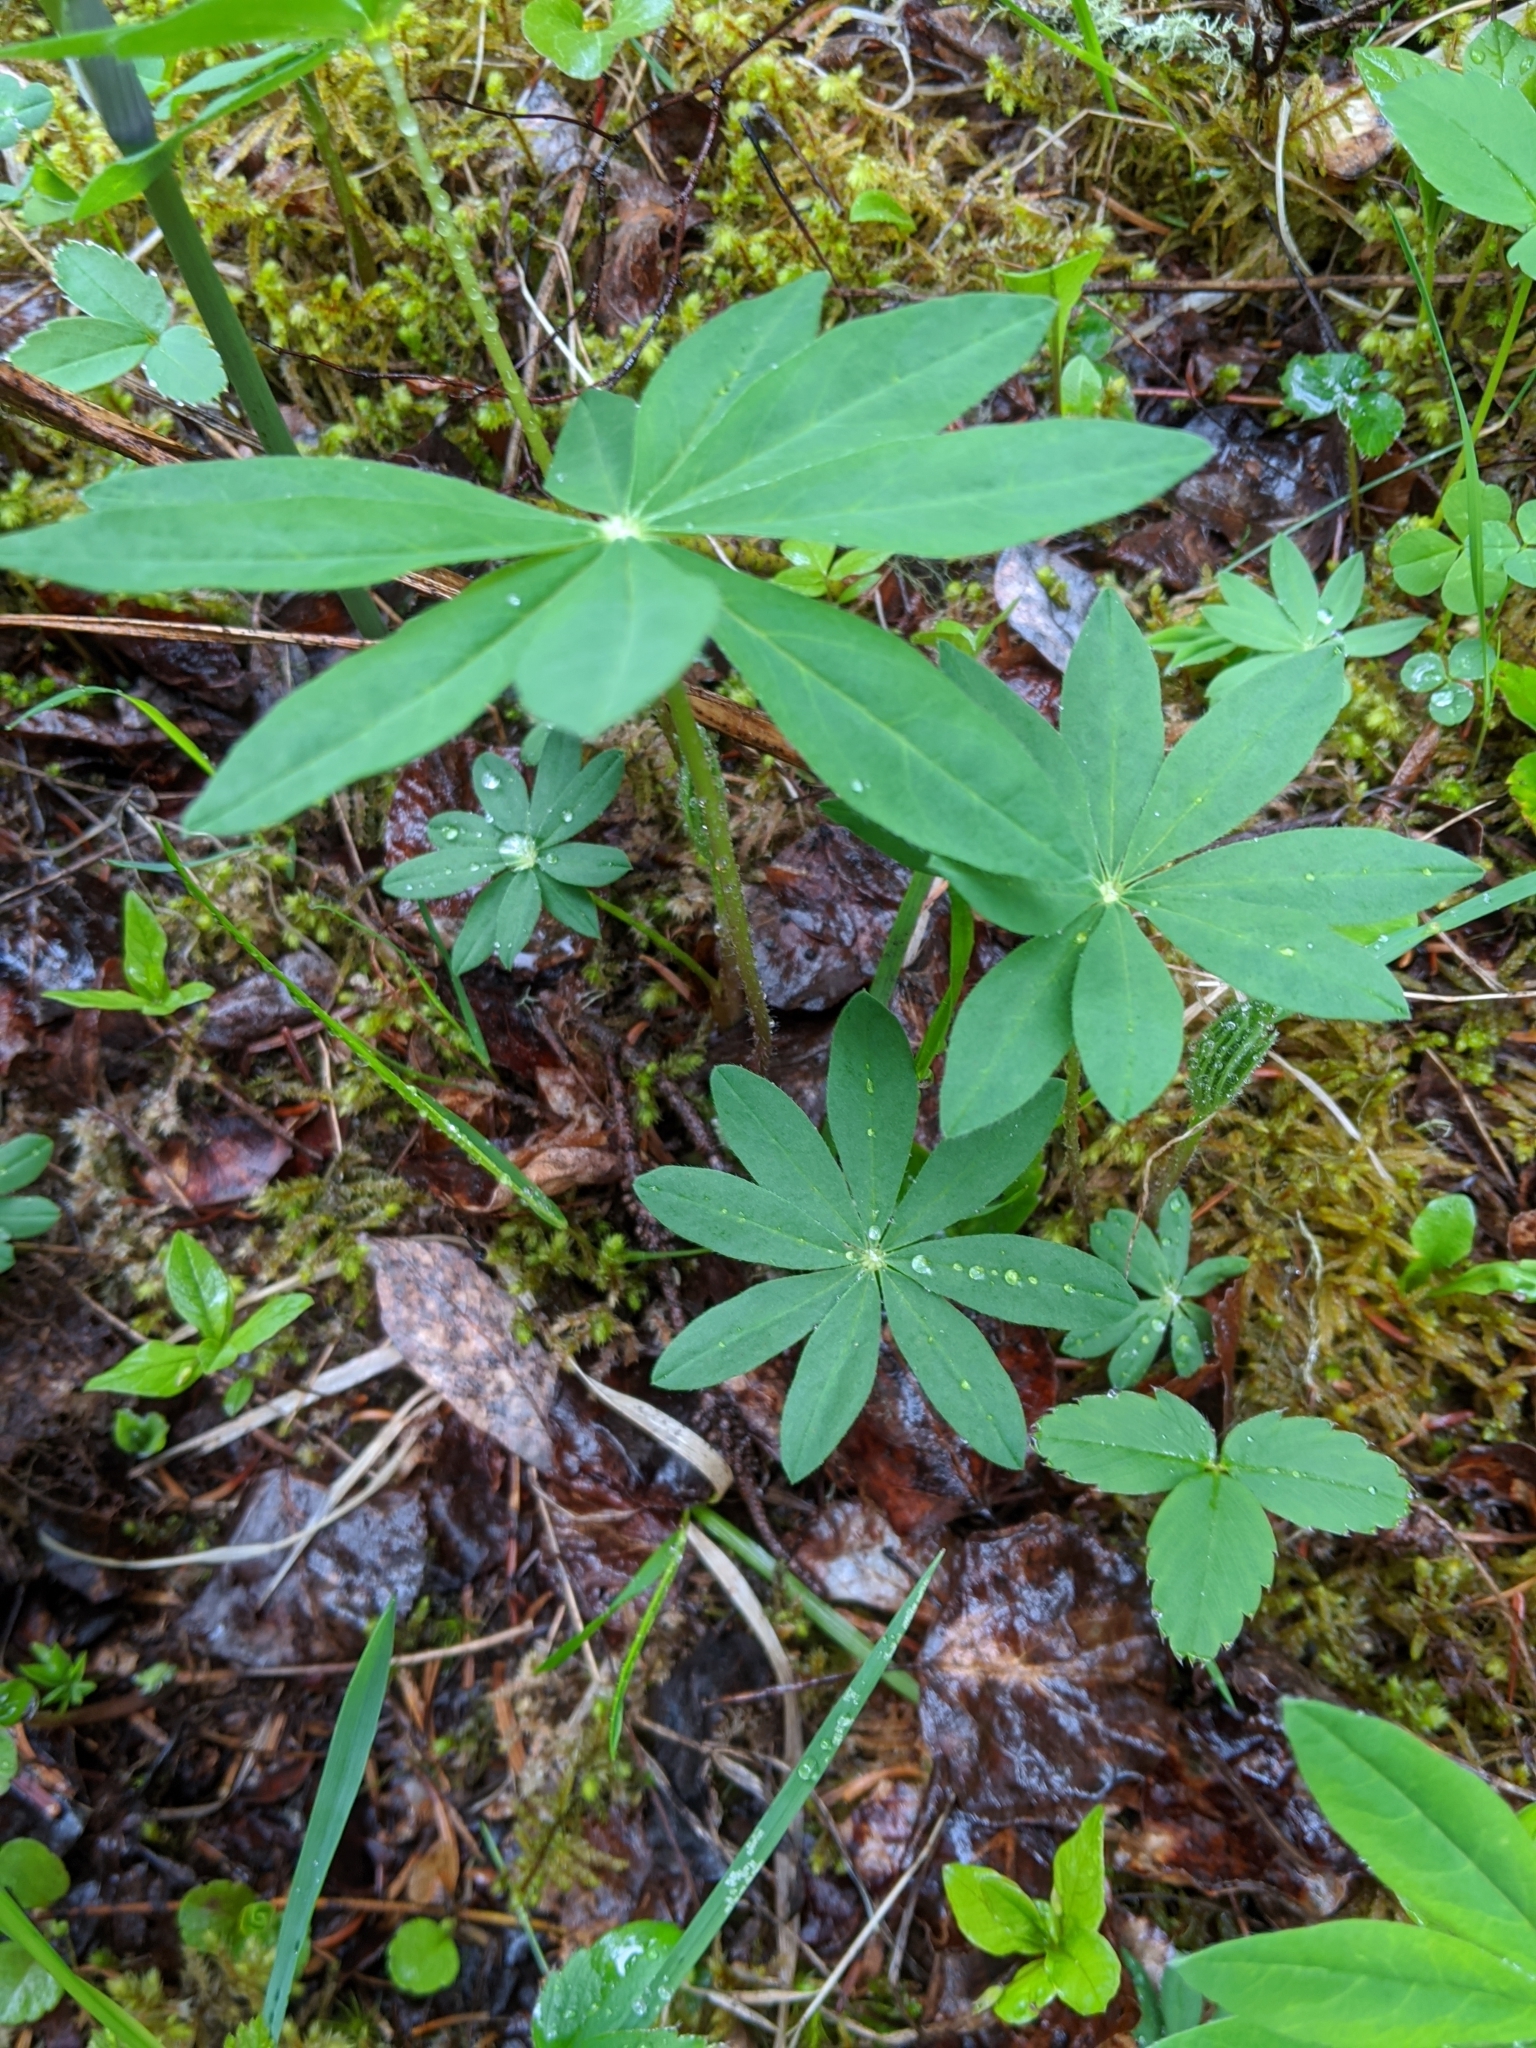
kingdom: Plantae
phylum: Tracheophyta
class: Magnoliopsida
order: Fabales
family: Fabaceae
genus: Lupinus
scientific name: Lupinus polyphyllus
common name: Garden lupin
